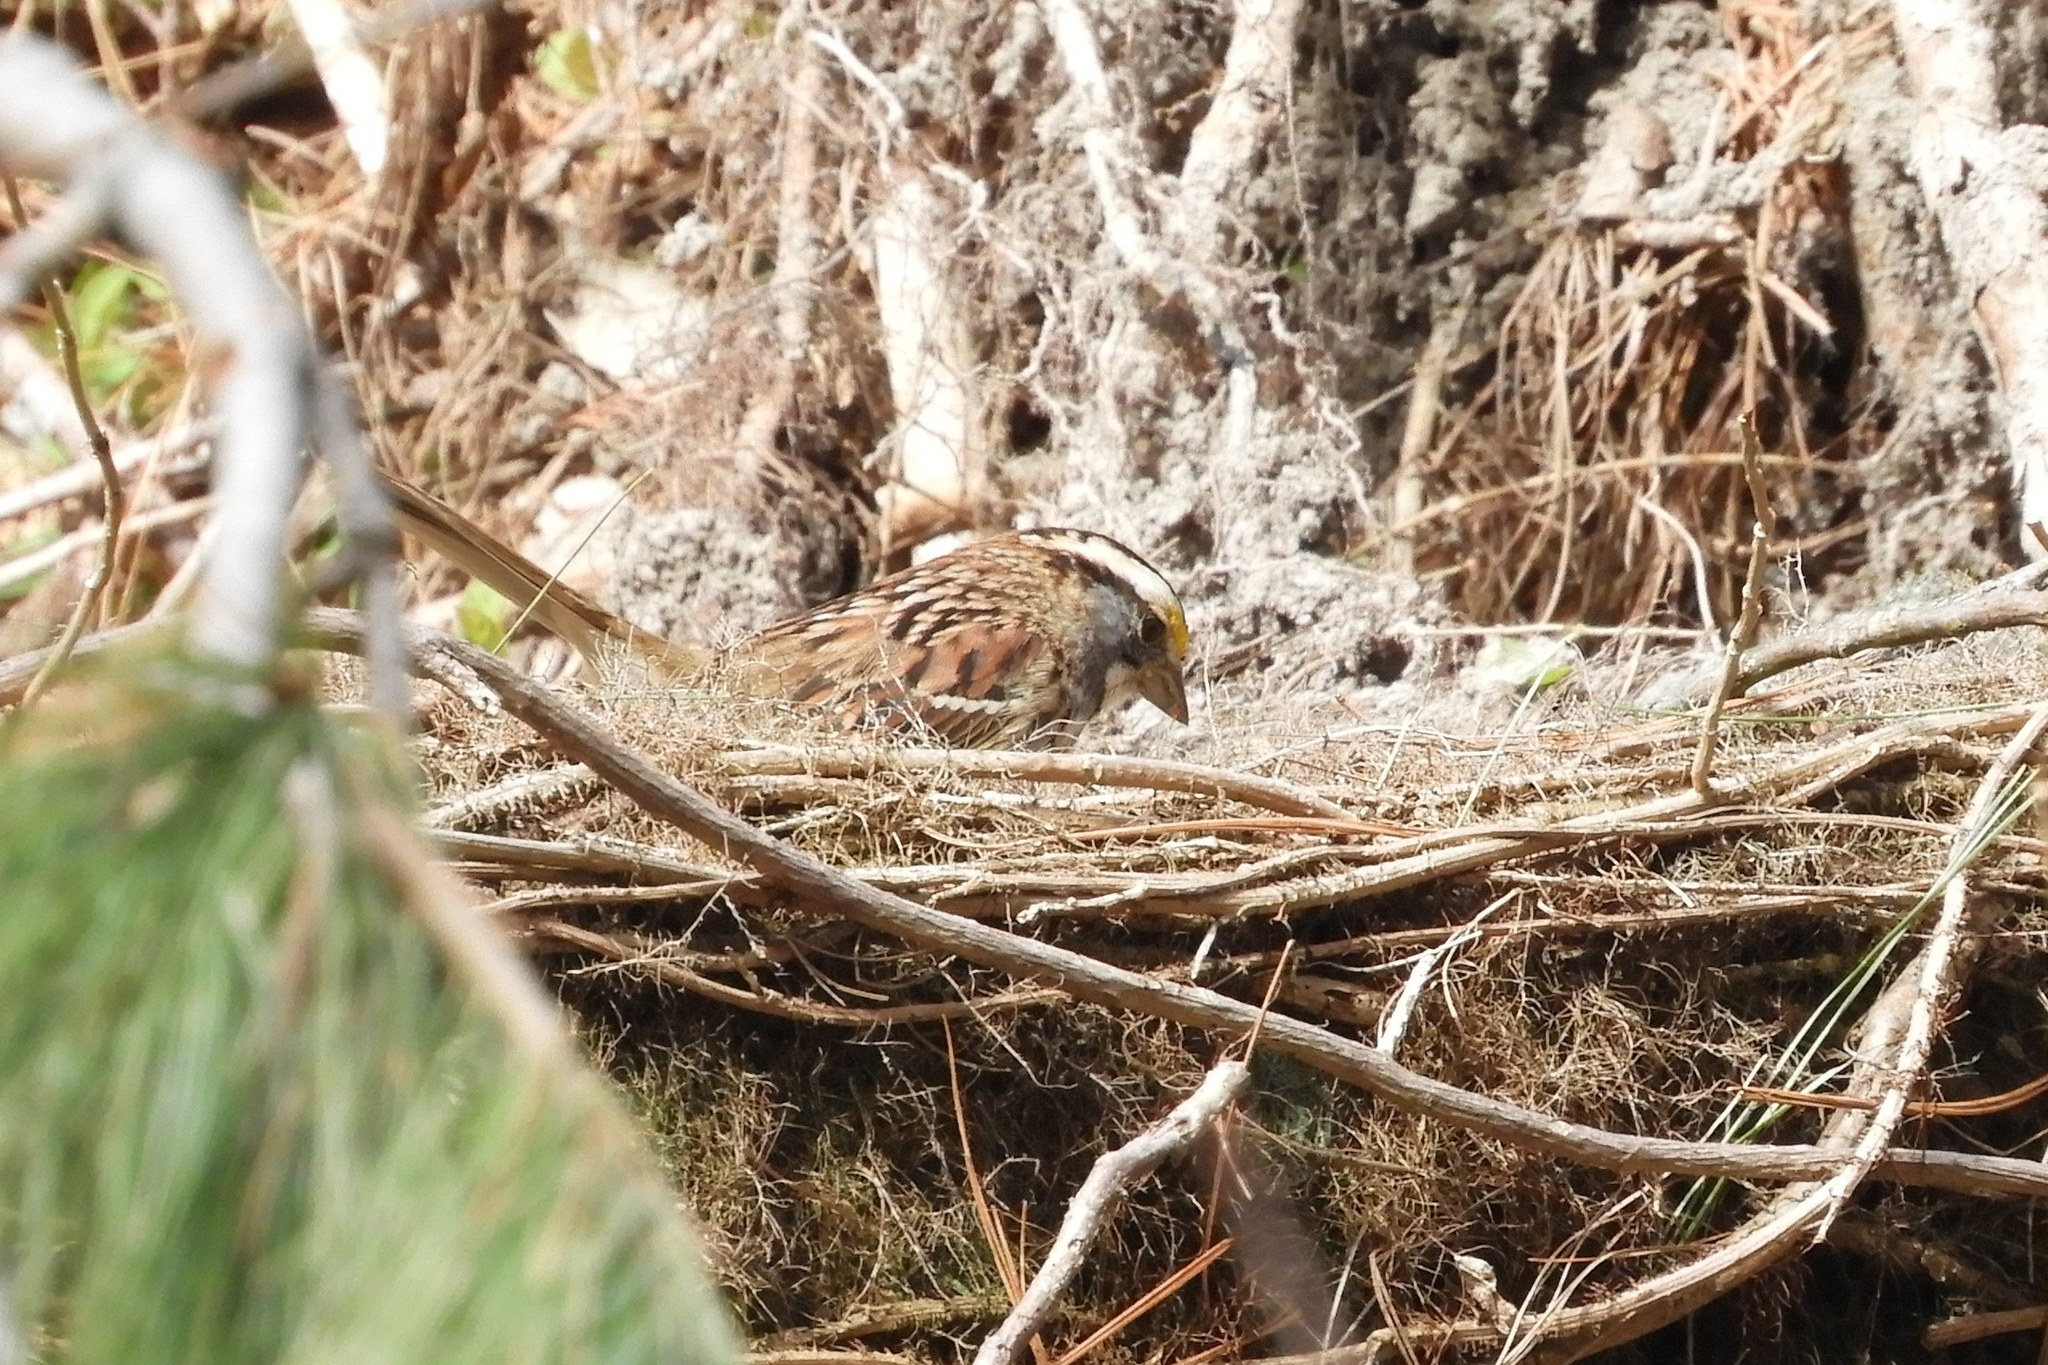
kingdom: Animalia
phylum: Chordata
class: Aves
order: Passeriformes
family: Passerellidae
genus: Zonotrichia
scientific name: Zonotrichia albicollis
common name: White-throated sparrow
